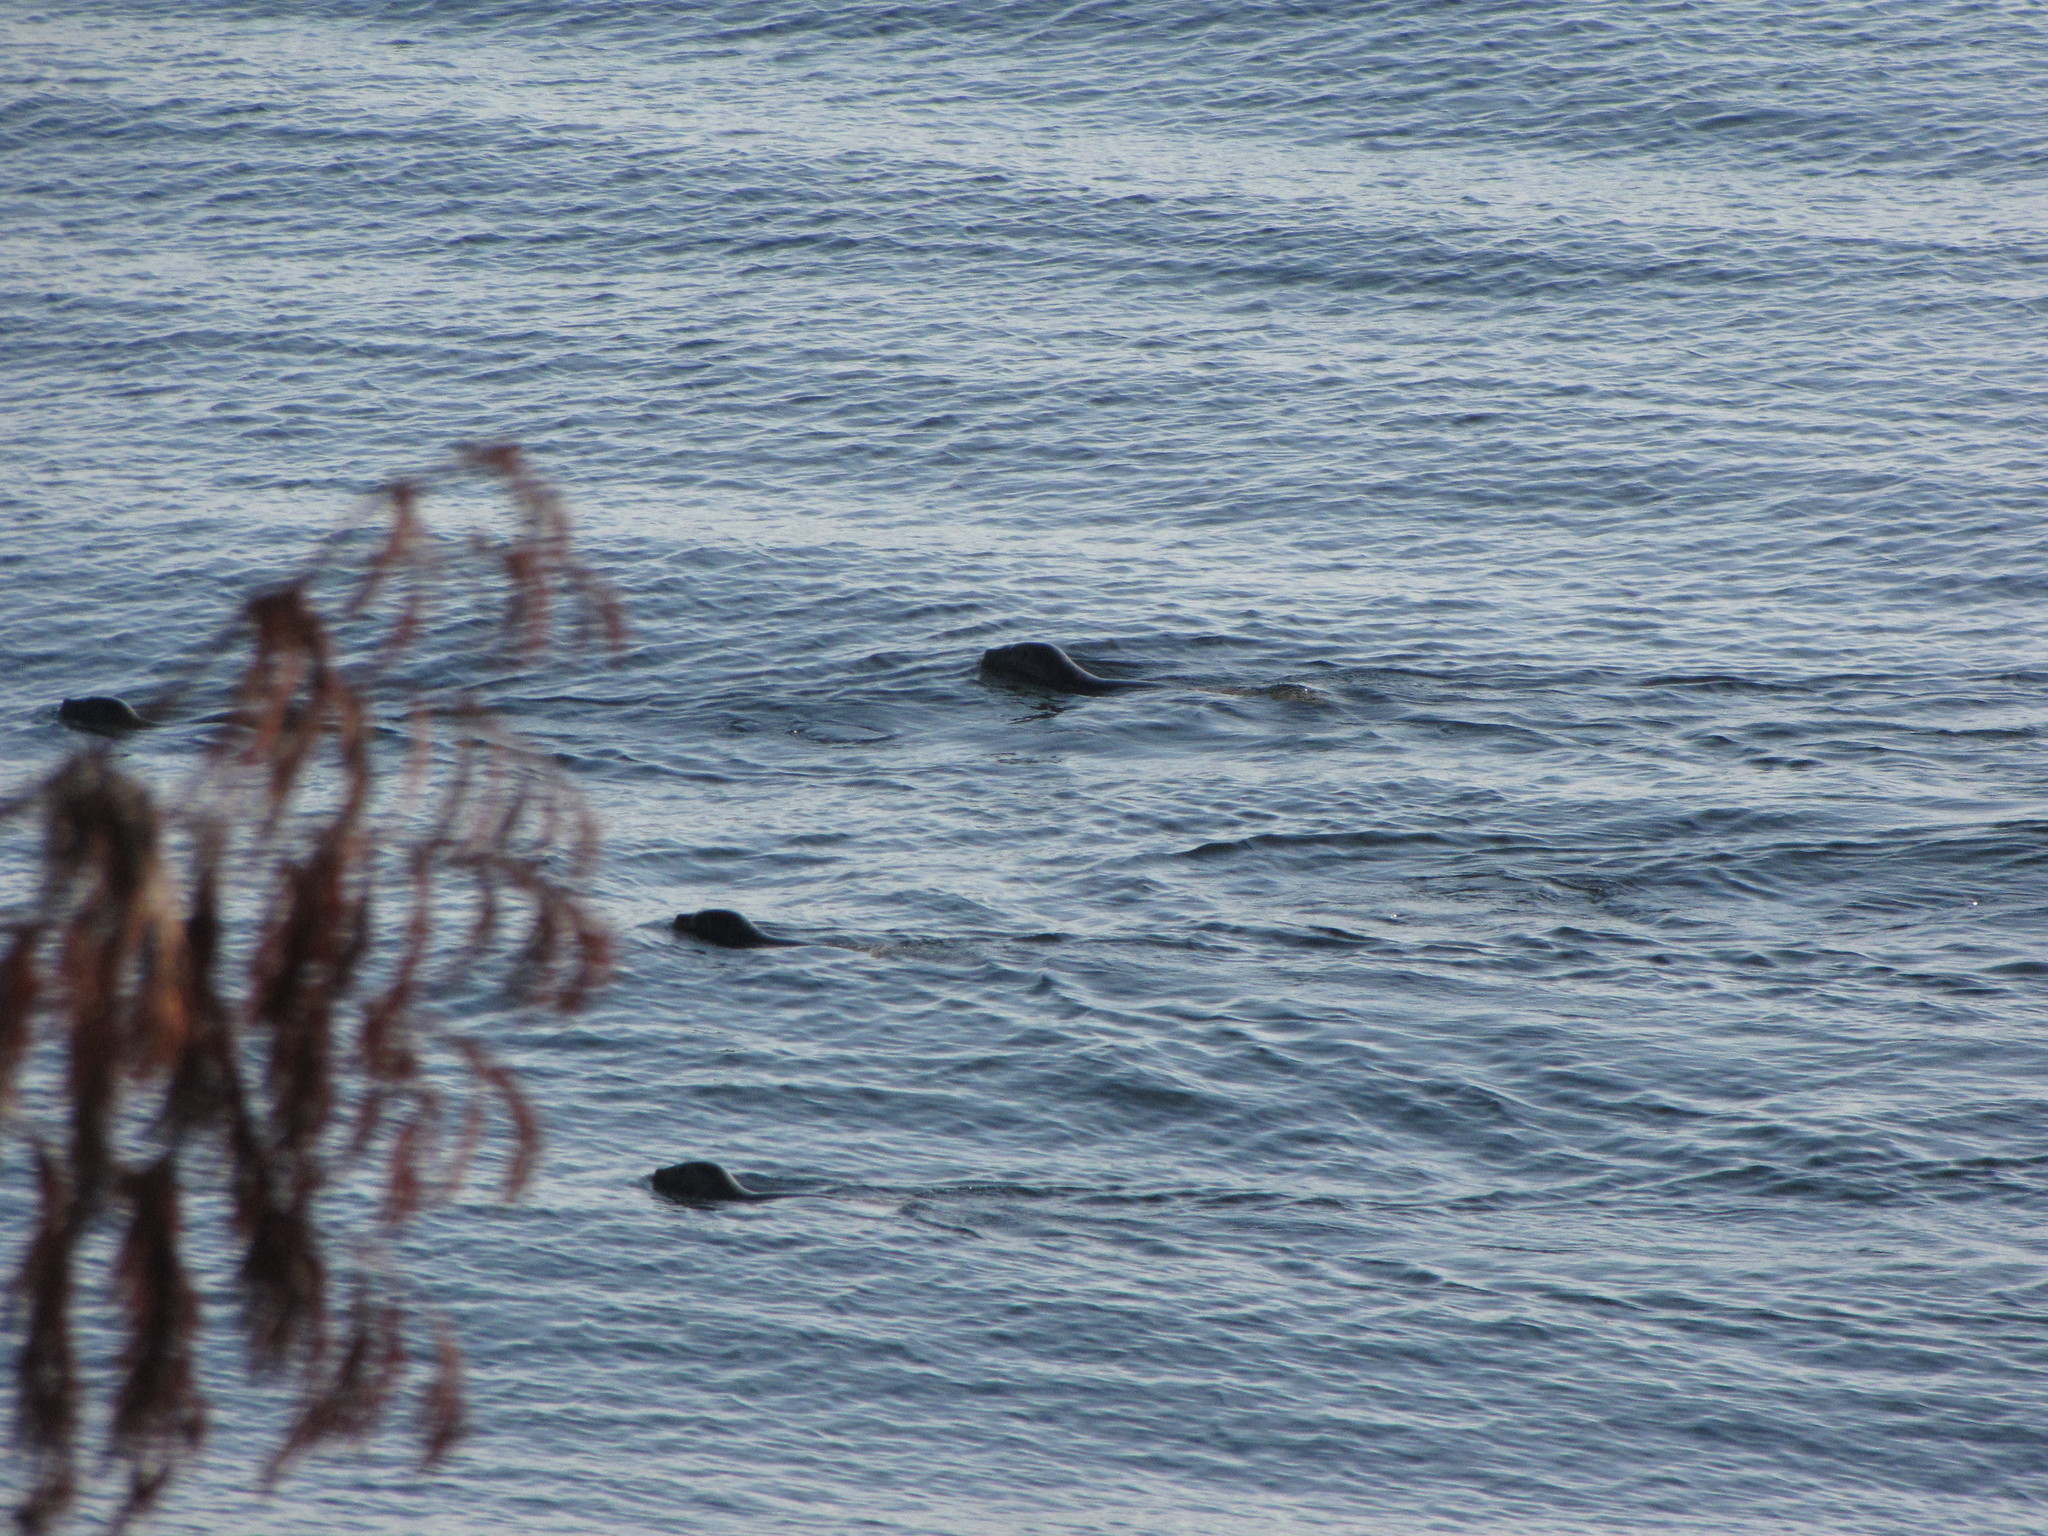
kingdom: Animalia
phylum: Chordata
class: Mammalia
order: Carnivora
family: Phocidae
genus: Phoca
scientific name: Phoca vitulina
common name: Harbor seal
